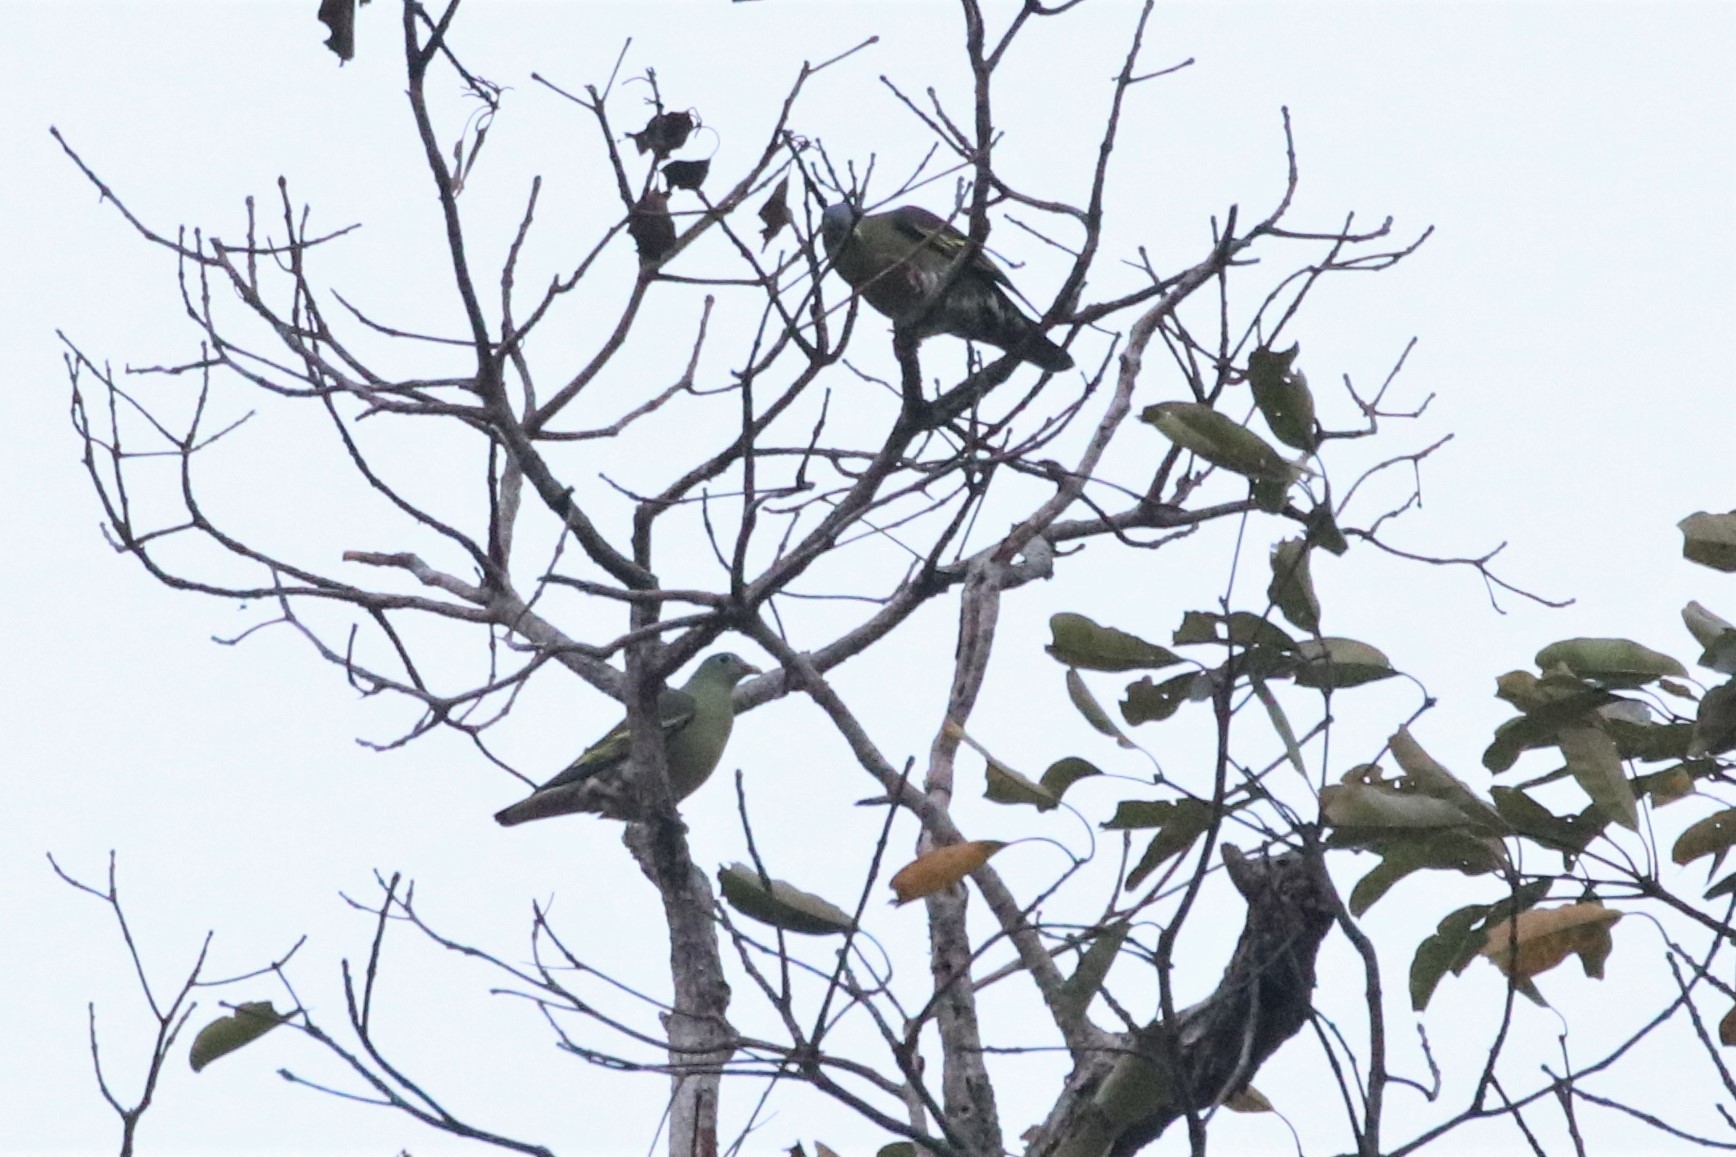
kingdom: Animalia
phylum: Chordata
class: Aves
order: Columbiformes
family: Columbidae
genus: Treron
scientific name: Treron curvirostra
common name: Thick-billed green pigeon
